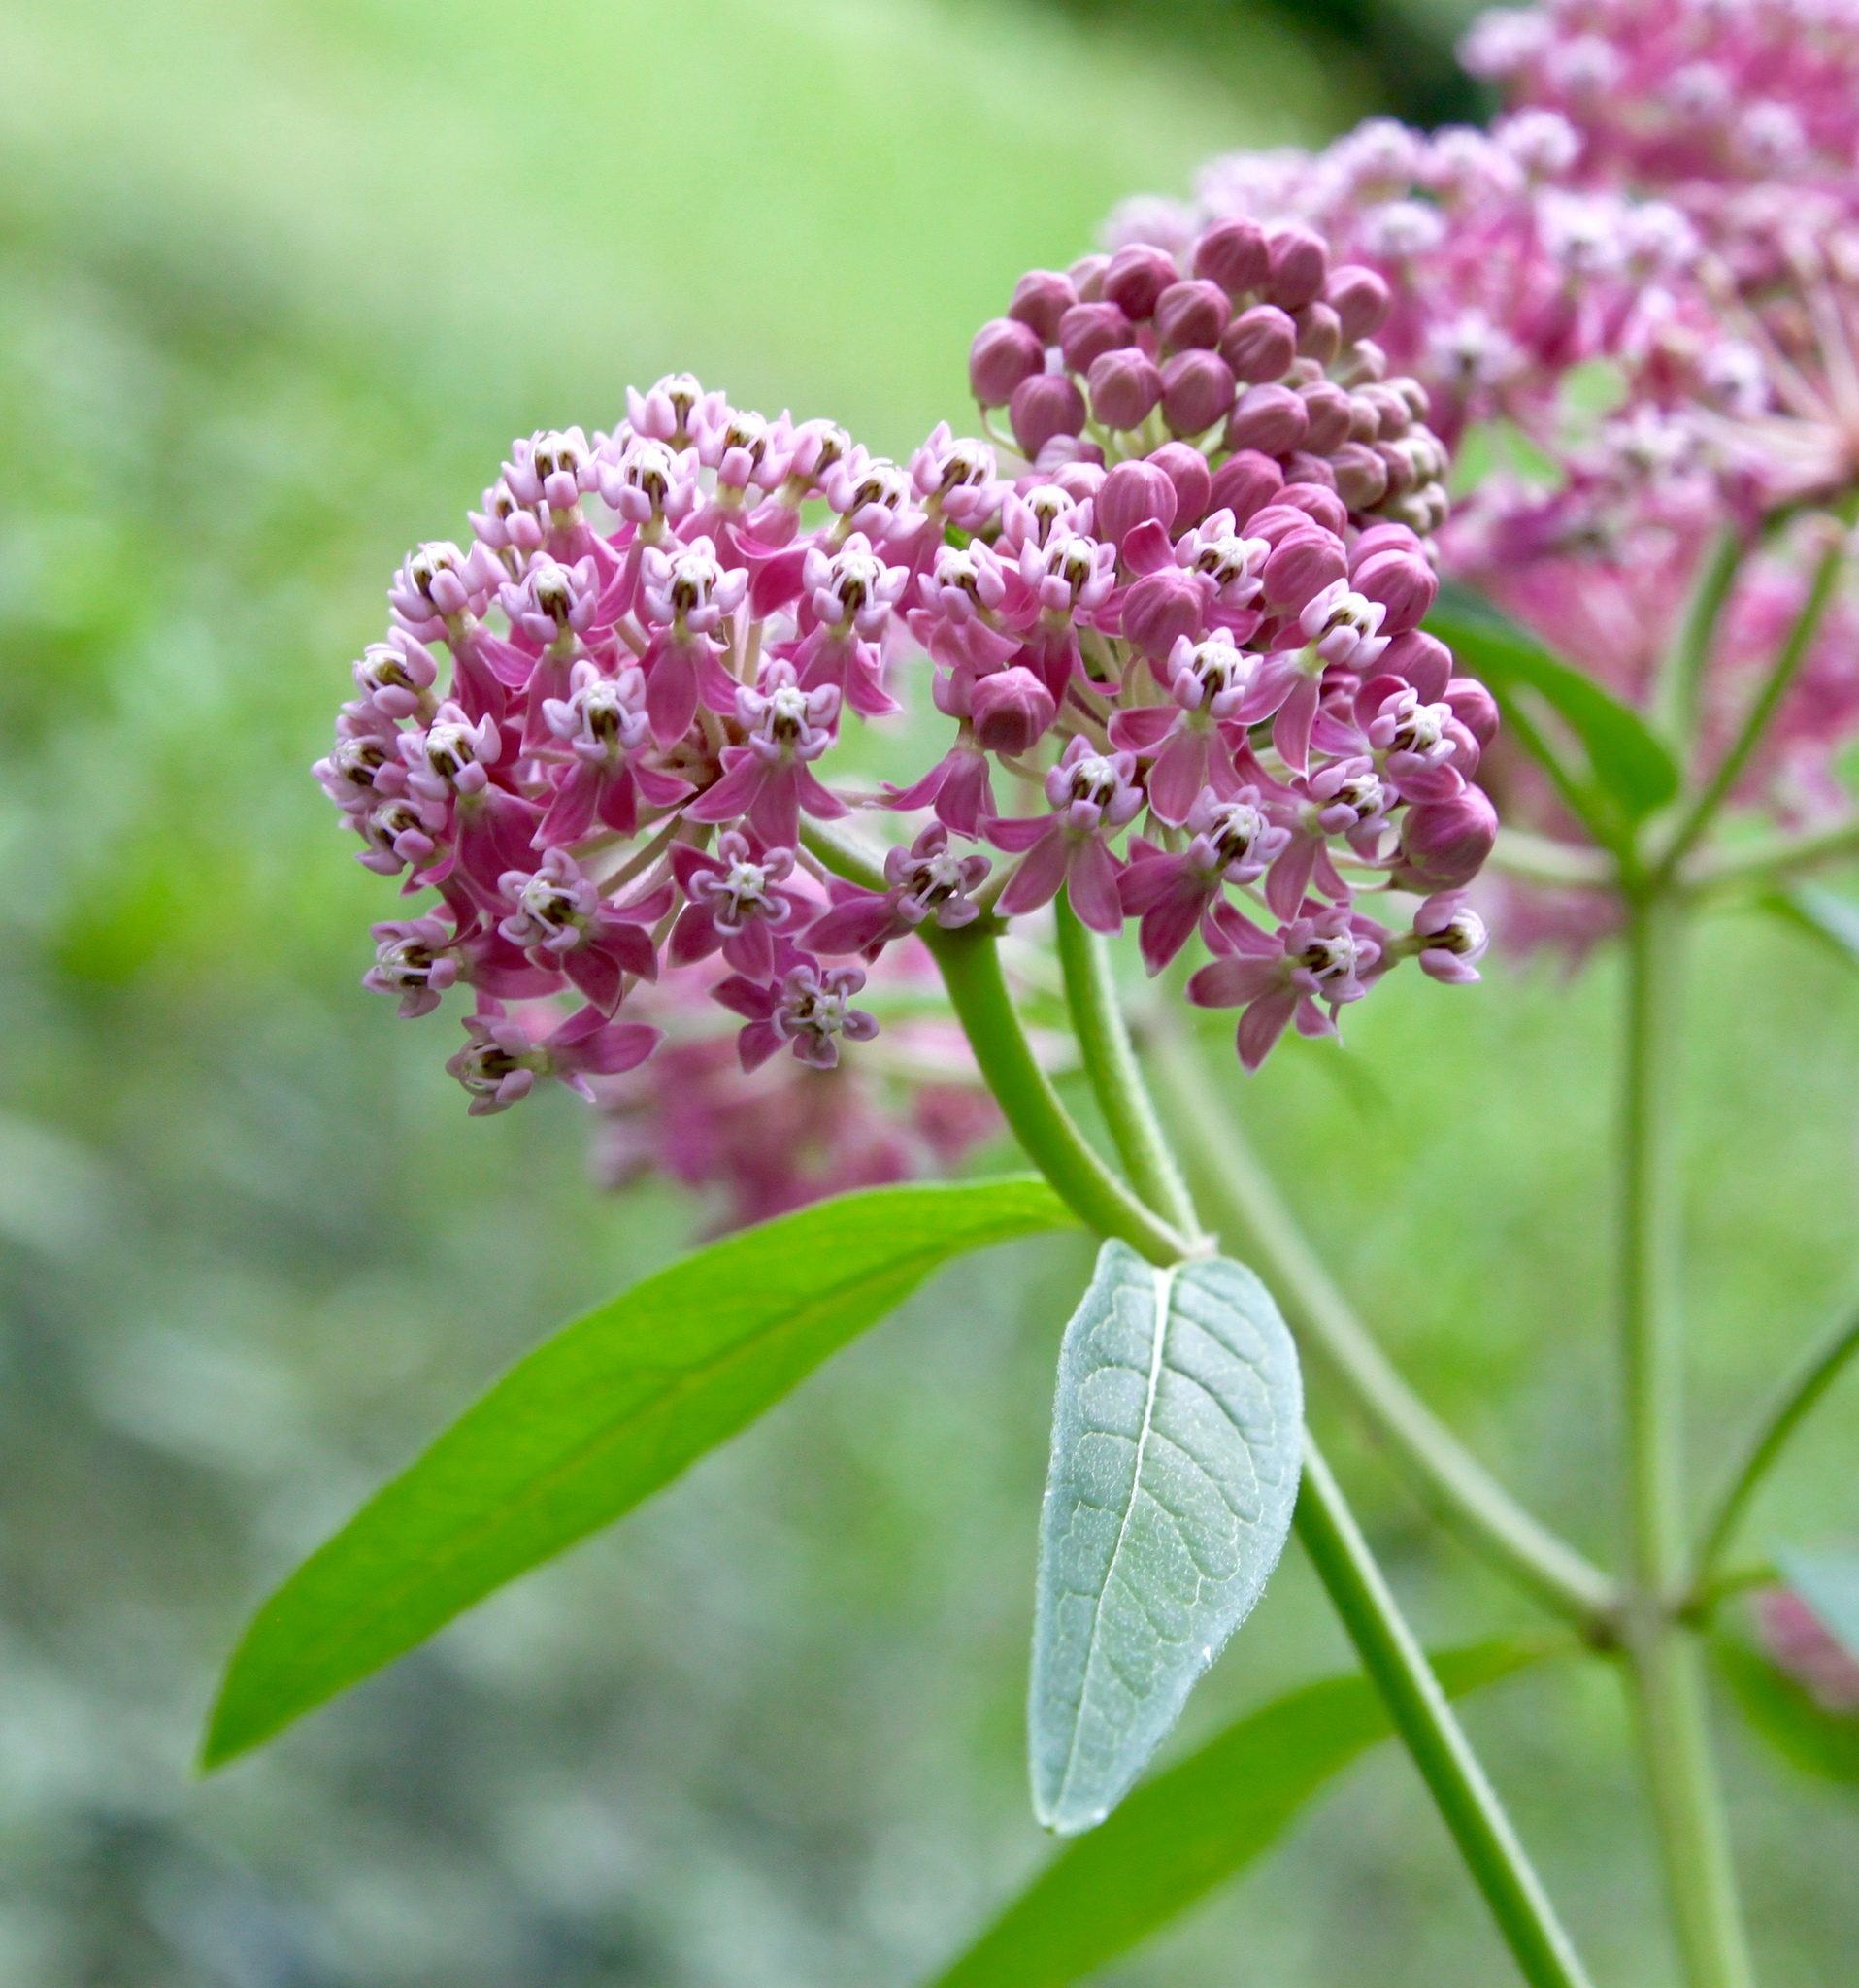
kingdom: Plantae
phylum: Tracheophyta
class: Magnoliopsida
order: Gentianales
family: Apocynaceae
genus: Asclepias
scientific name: Asclepias incarnata
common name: Swamp milkweed
